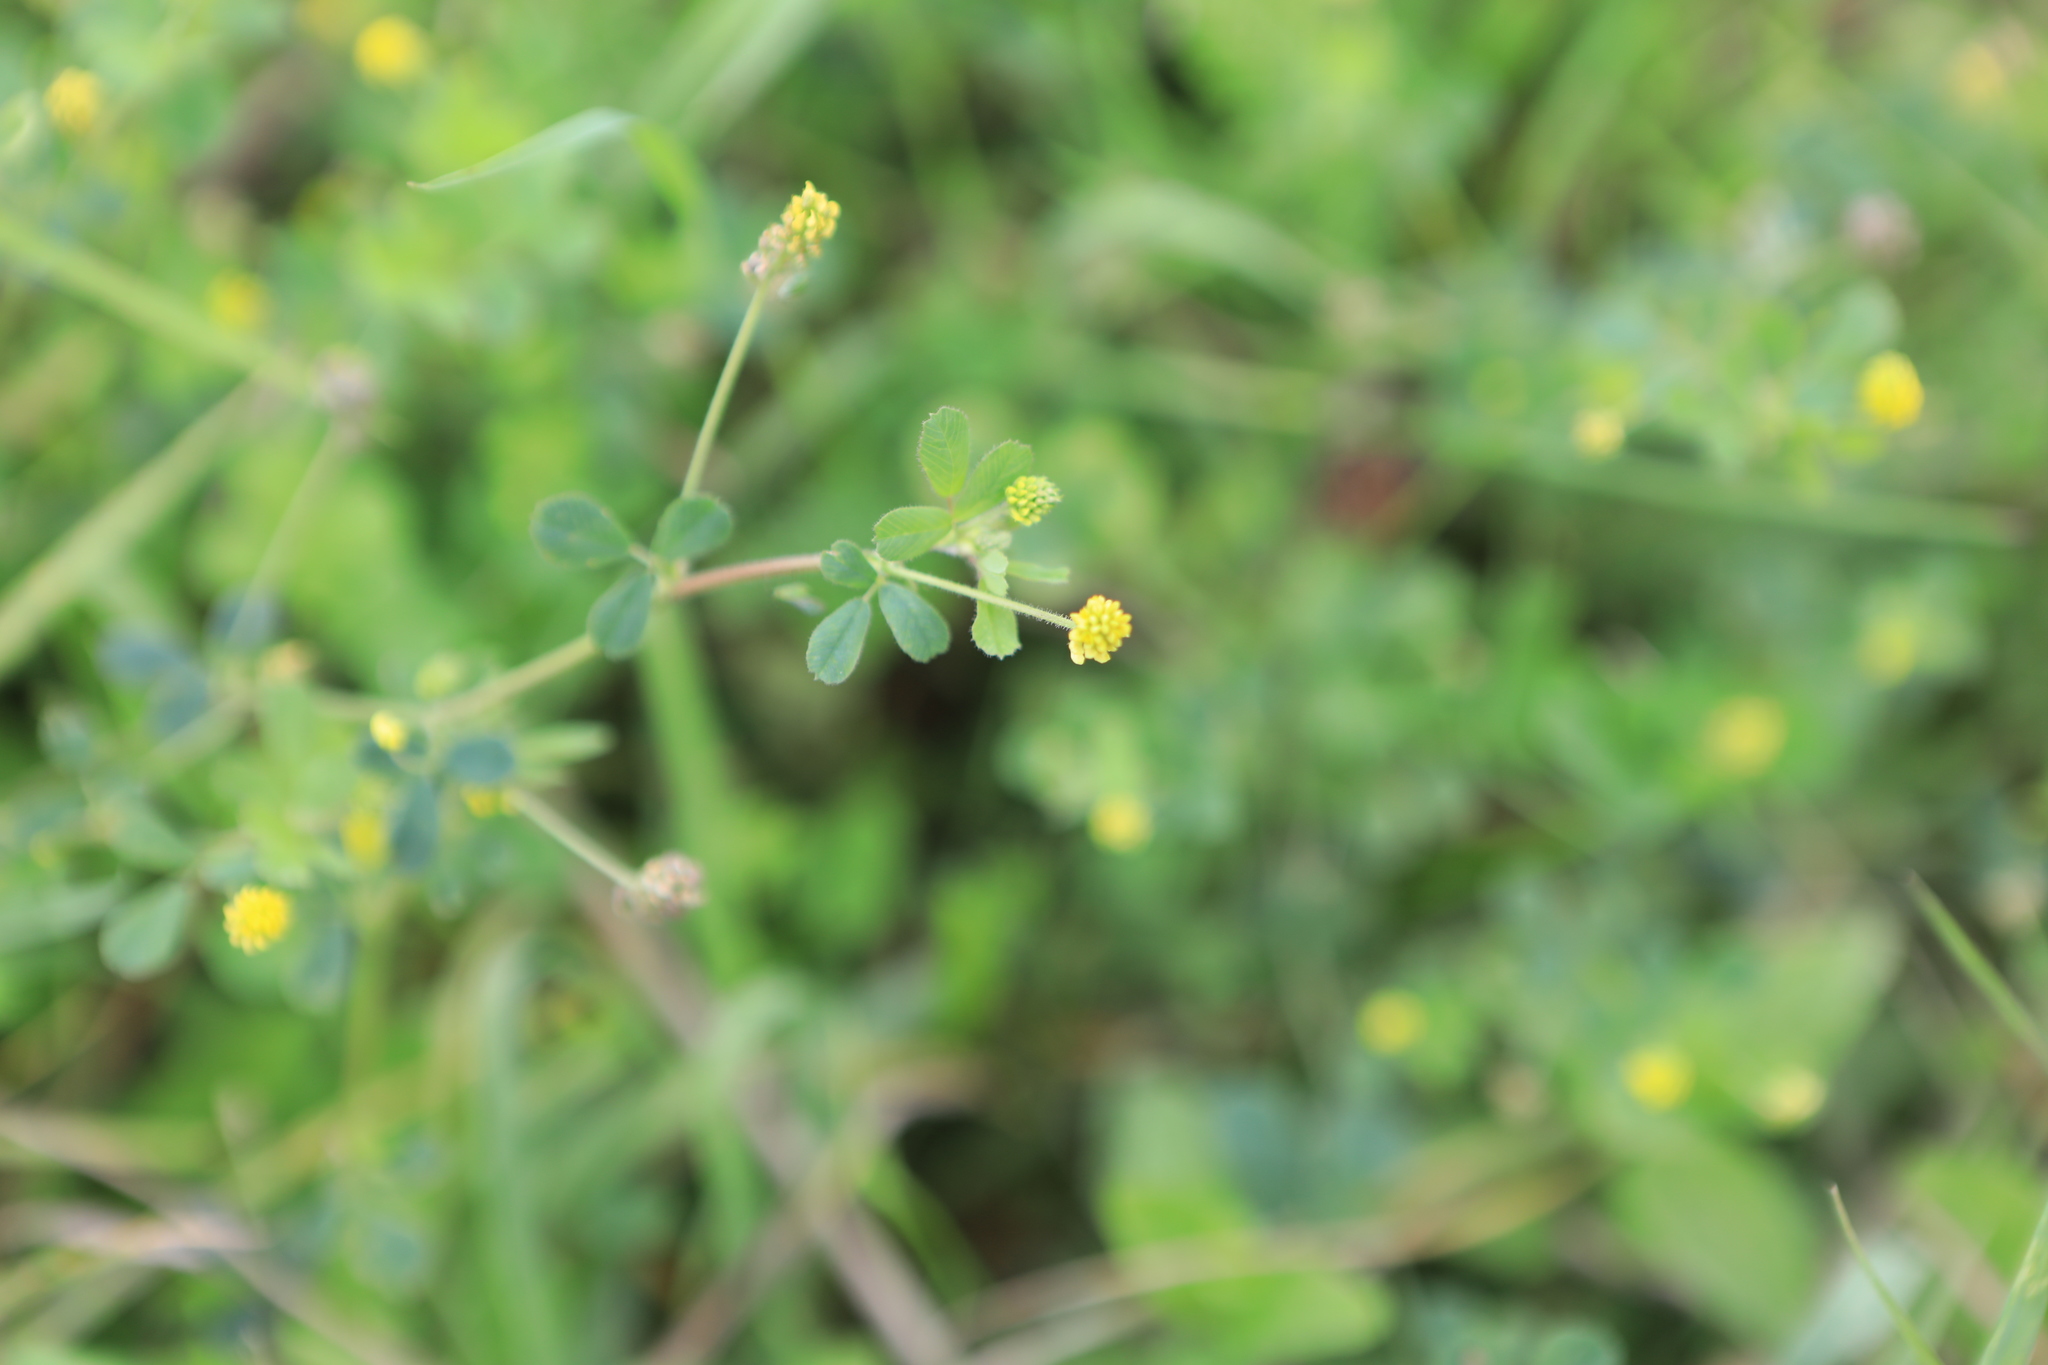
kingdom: Plantae
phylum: Tracheophyta
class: Magnoliopsida
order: Fabales
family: Fabaceae
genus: Medicago
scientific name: Medicago lupulina
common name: Black medick
